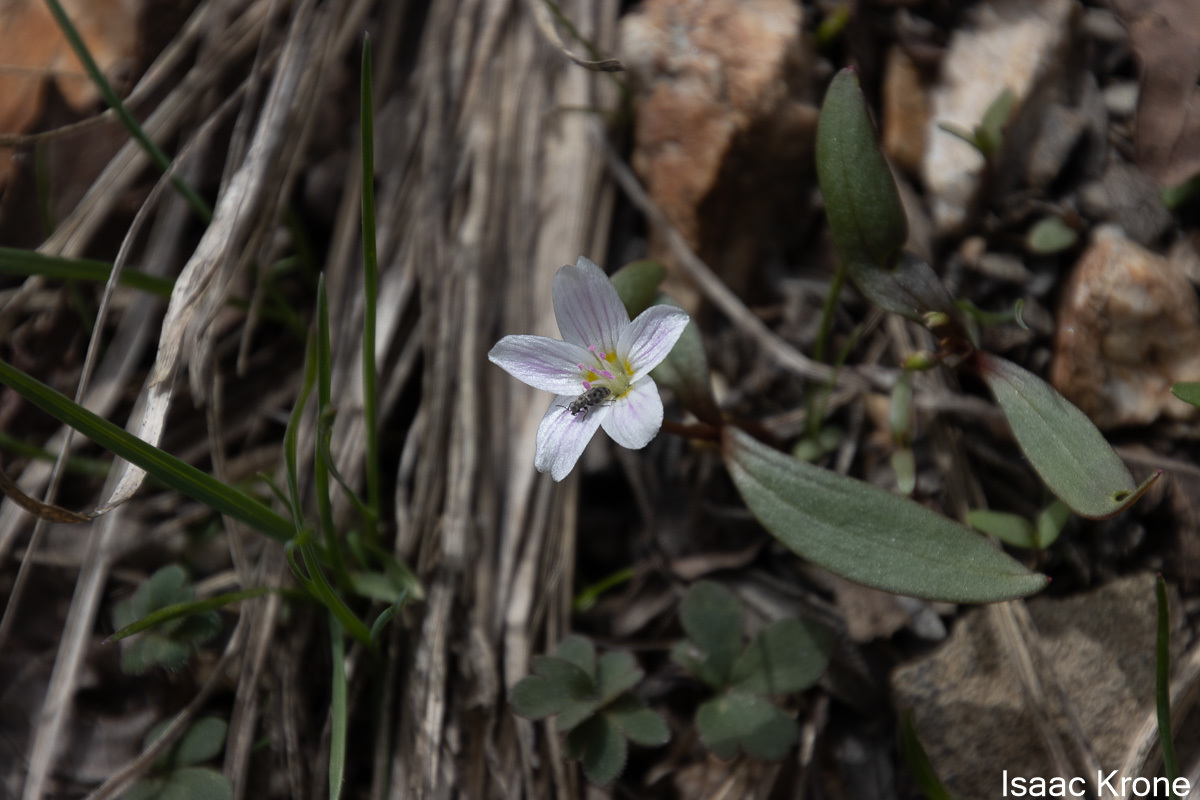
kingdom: Plantae
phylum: Tracheophyta
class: Magnoliopsida
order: Caryophyllales
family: Montiaceae
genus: Claytonia
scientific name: Claytonia lanceolata
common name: Western spring-beauty
